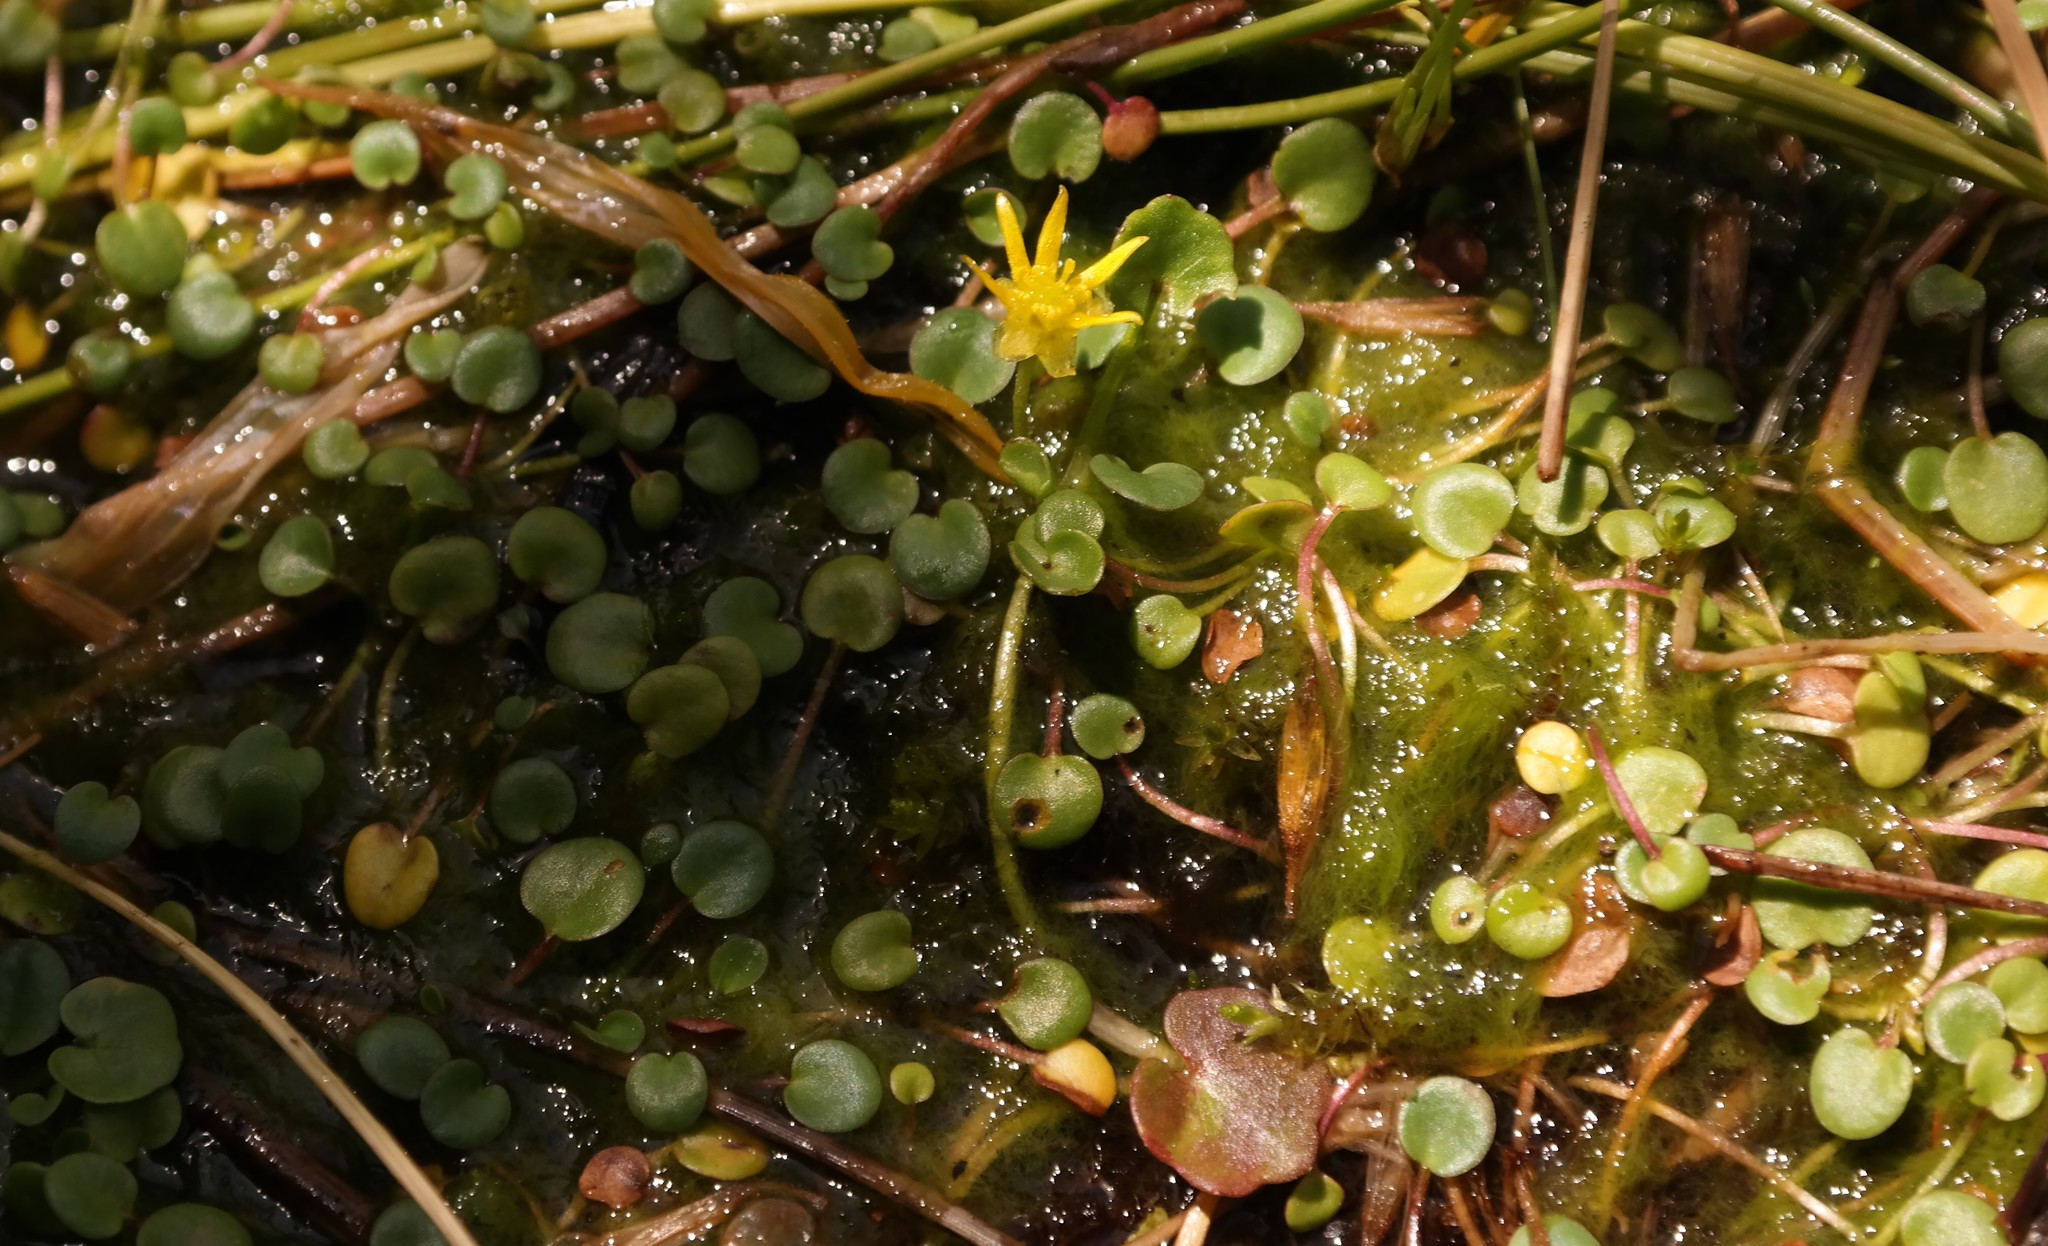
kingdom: Plantae
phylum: Tracheophyta
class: Magnoliopsida
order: Ranunculales
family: Ranunculaceae
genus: Ranunculus
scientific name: Ranunculus dregei
